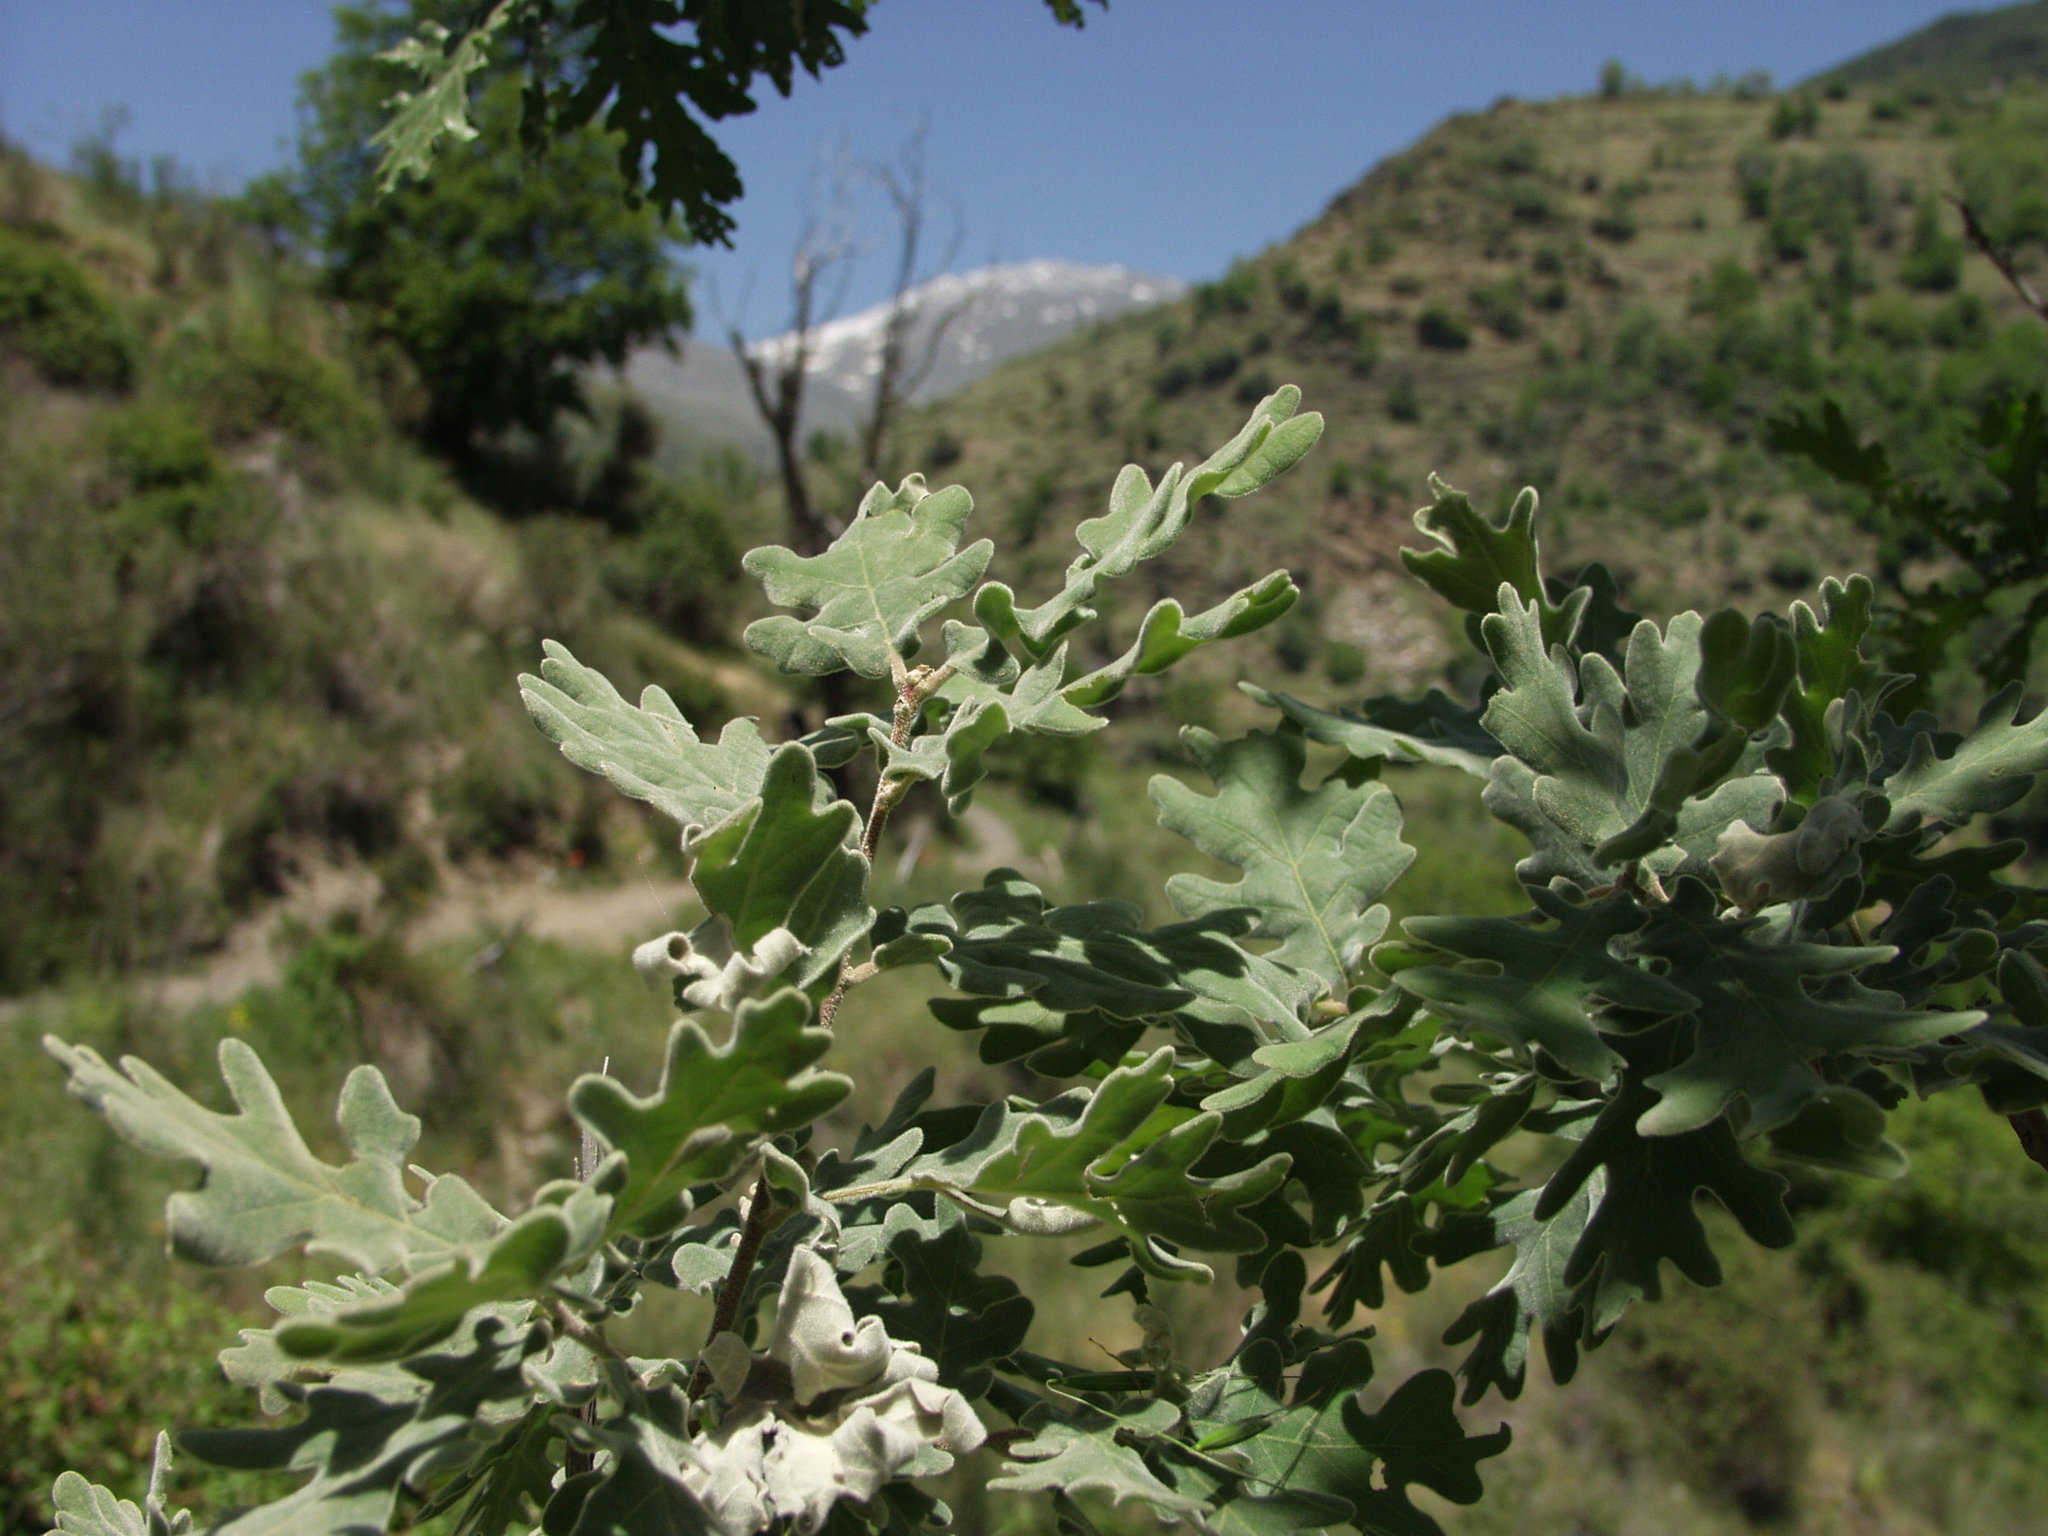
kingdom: Plantae
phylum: Tracheophyta
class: Magnoliopsida
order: Fagales
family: Fagaceae
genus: Quercus
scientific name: Quercus pyrenaica
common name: Pyrenean oak
